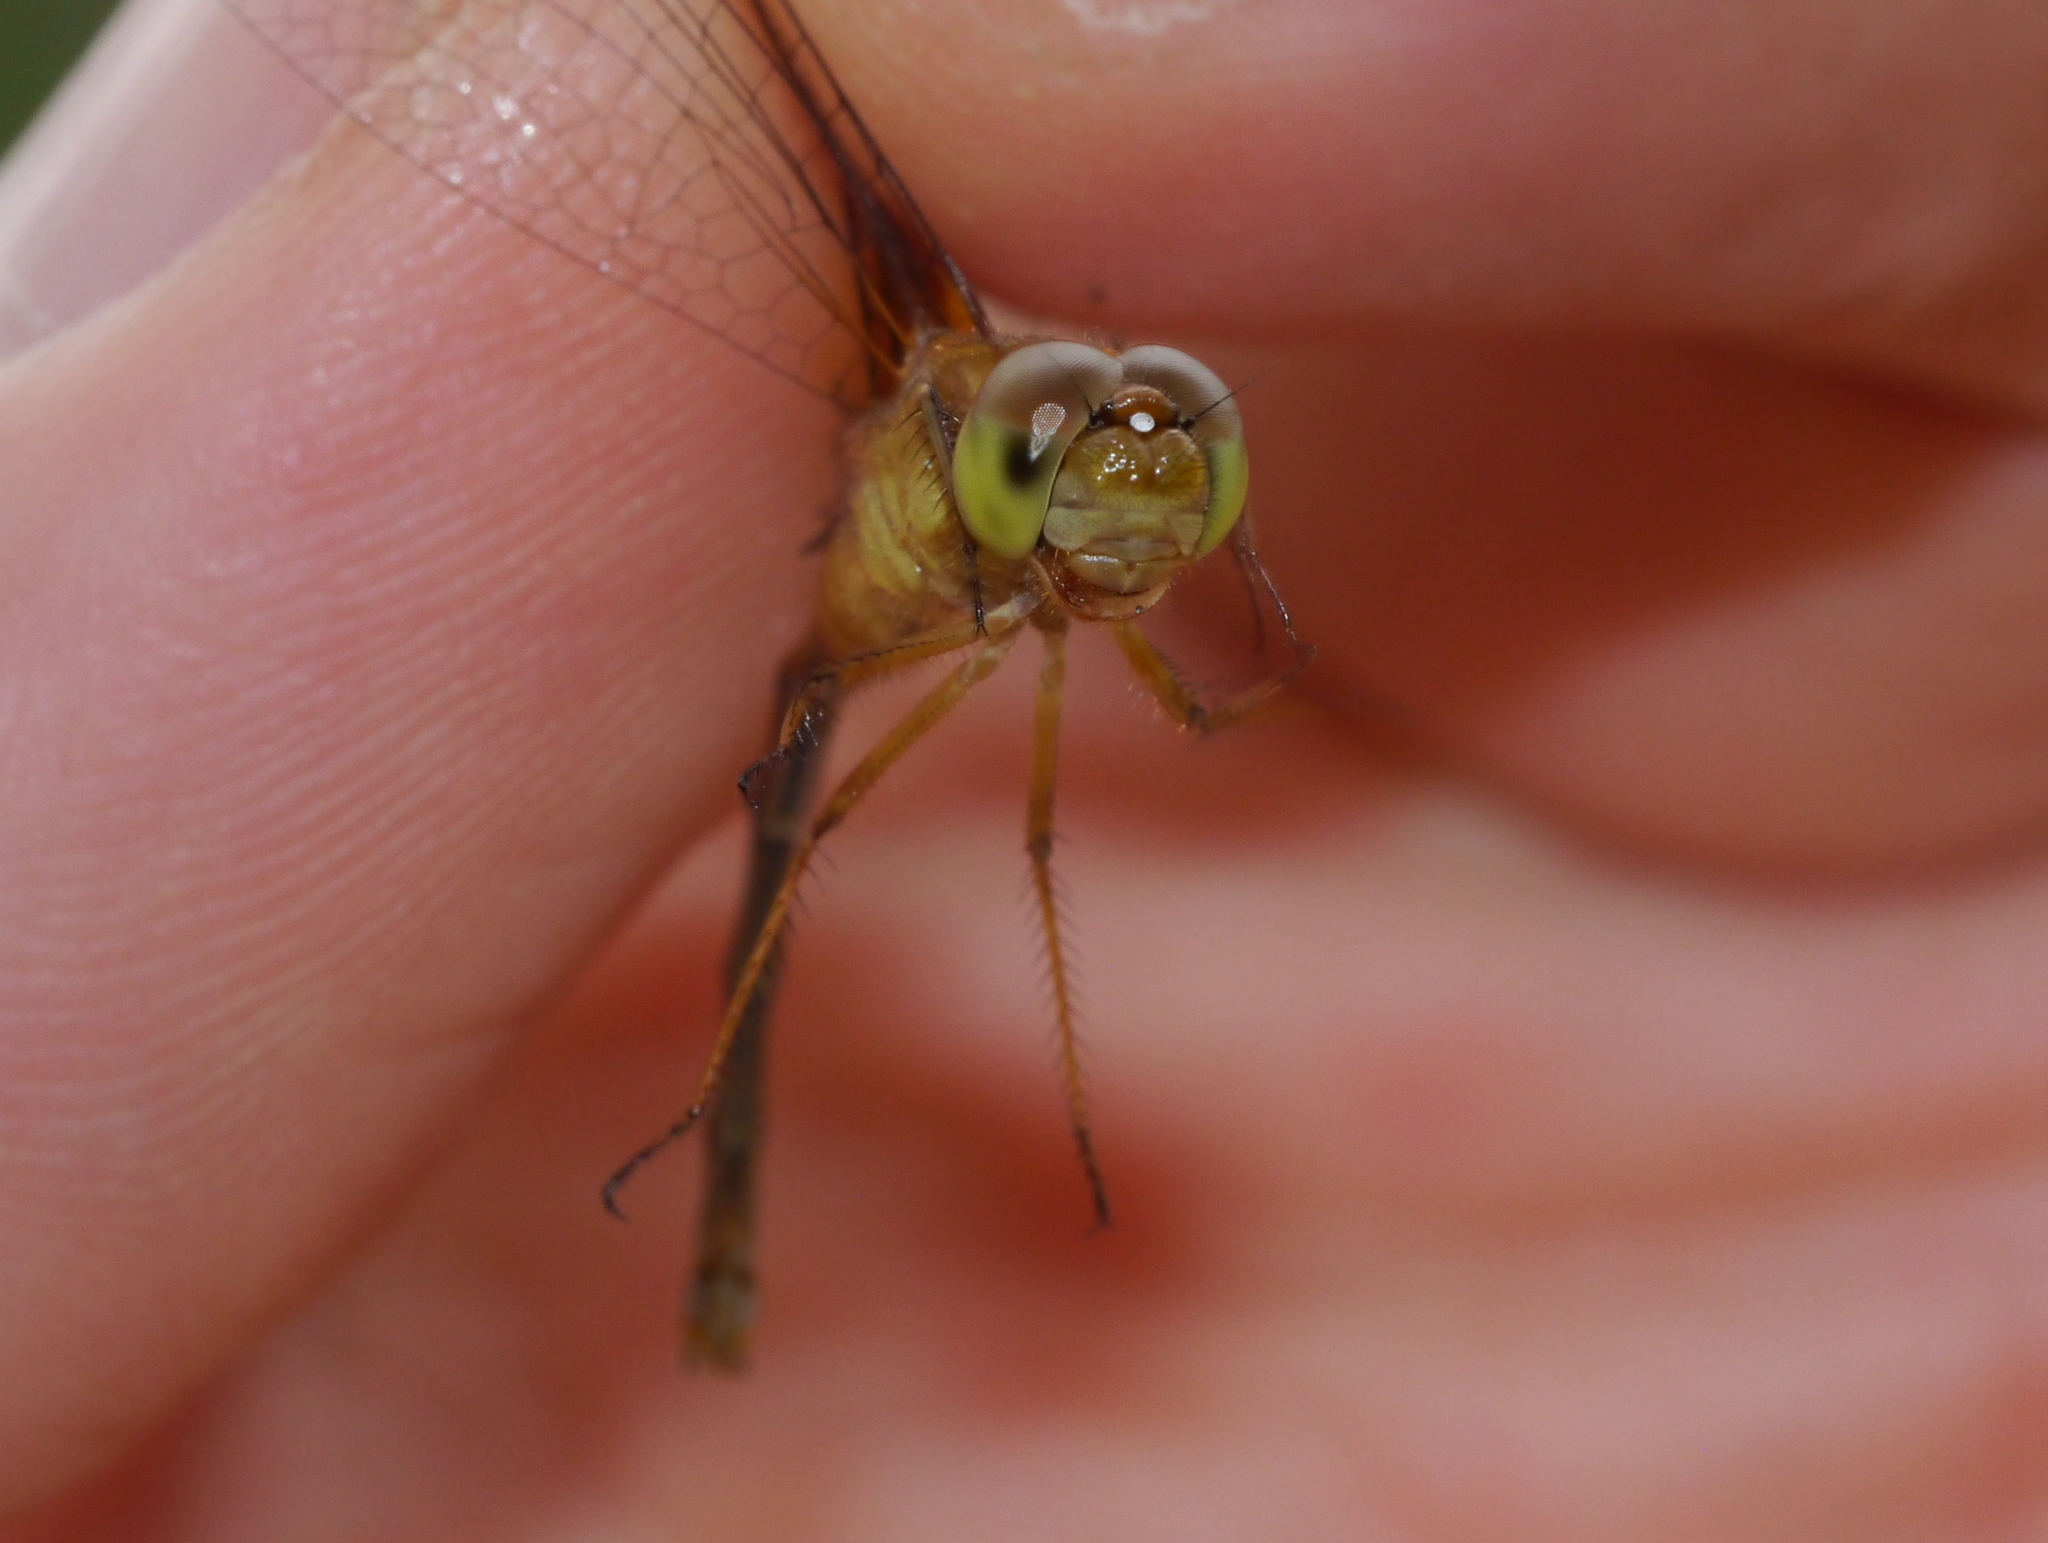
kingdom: Animalia
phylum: Arthropoda
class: Insecta
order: Odonata
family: Libellulidae
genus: Sympetrum
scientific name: Sympetrum vicinum
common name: Autumn meadowhawk
